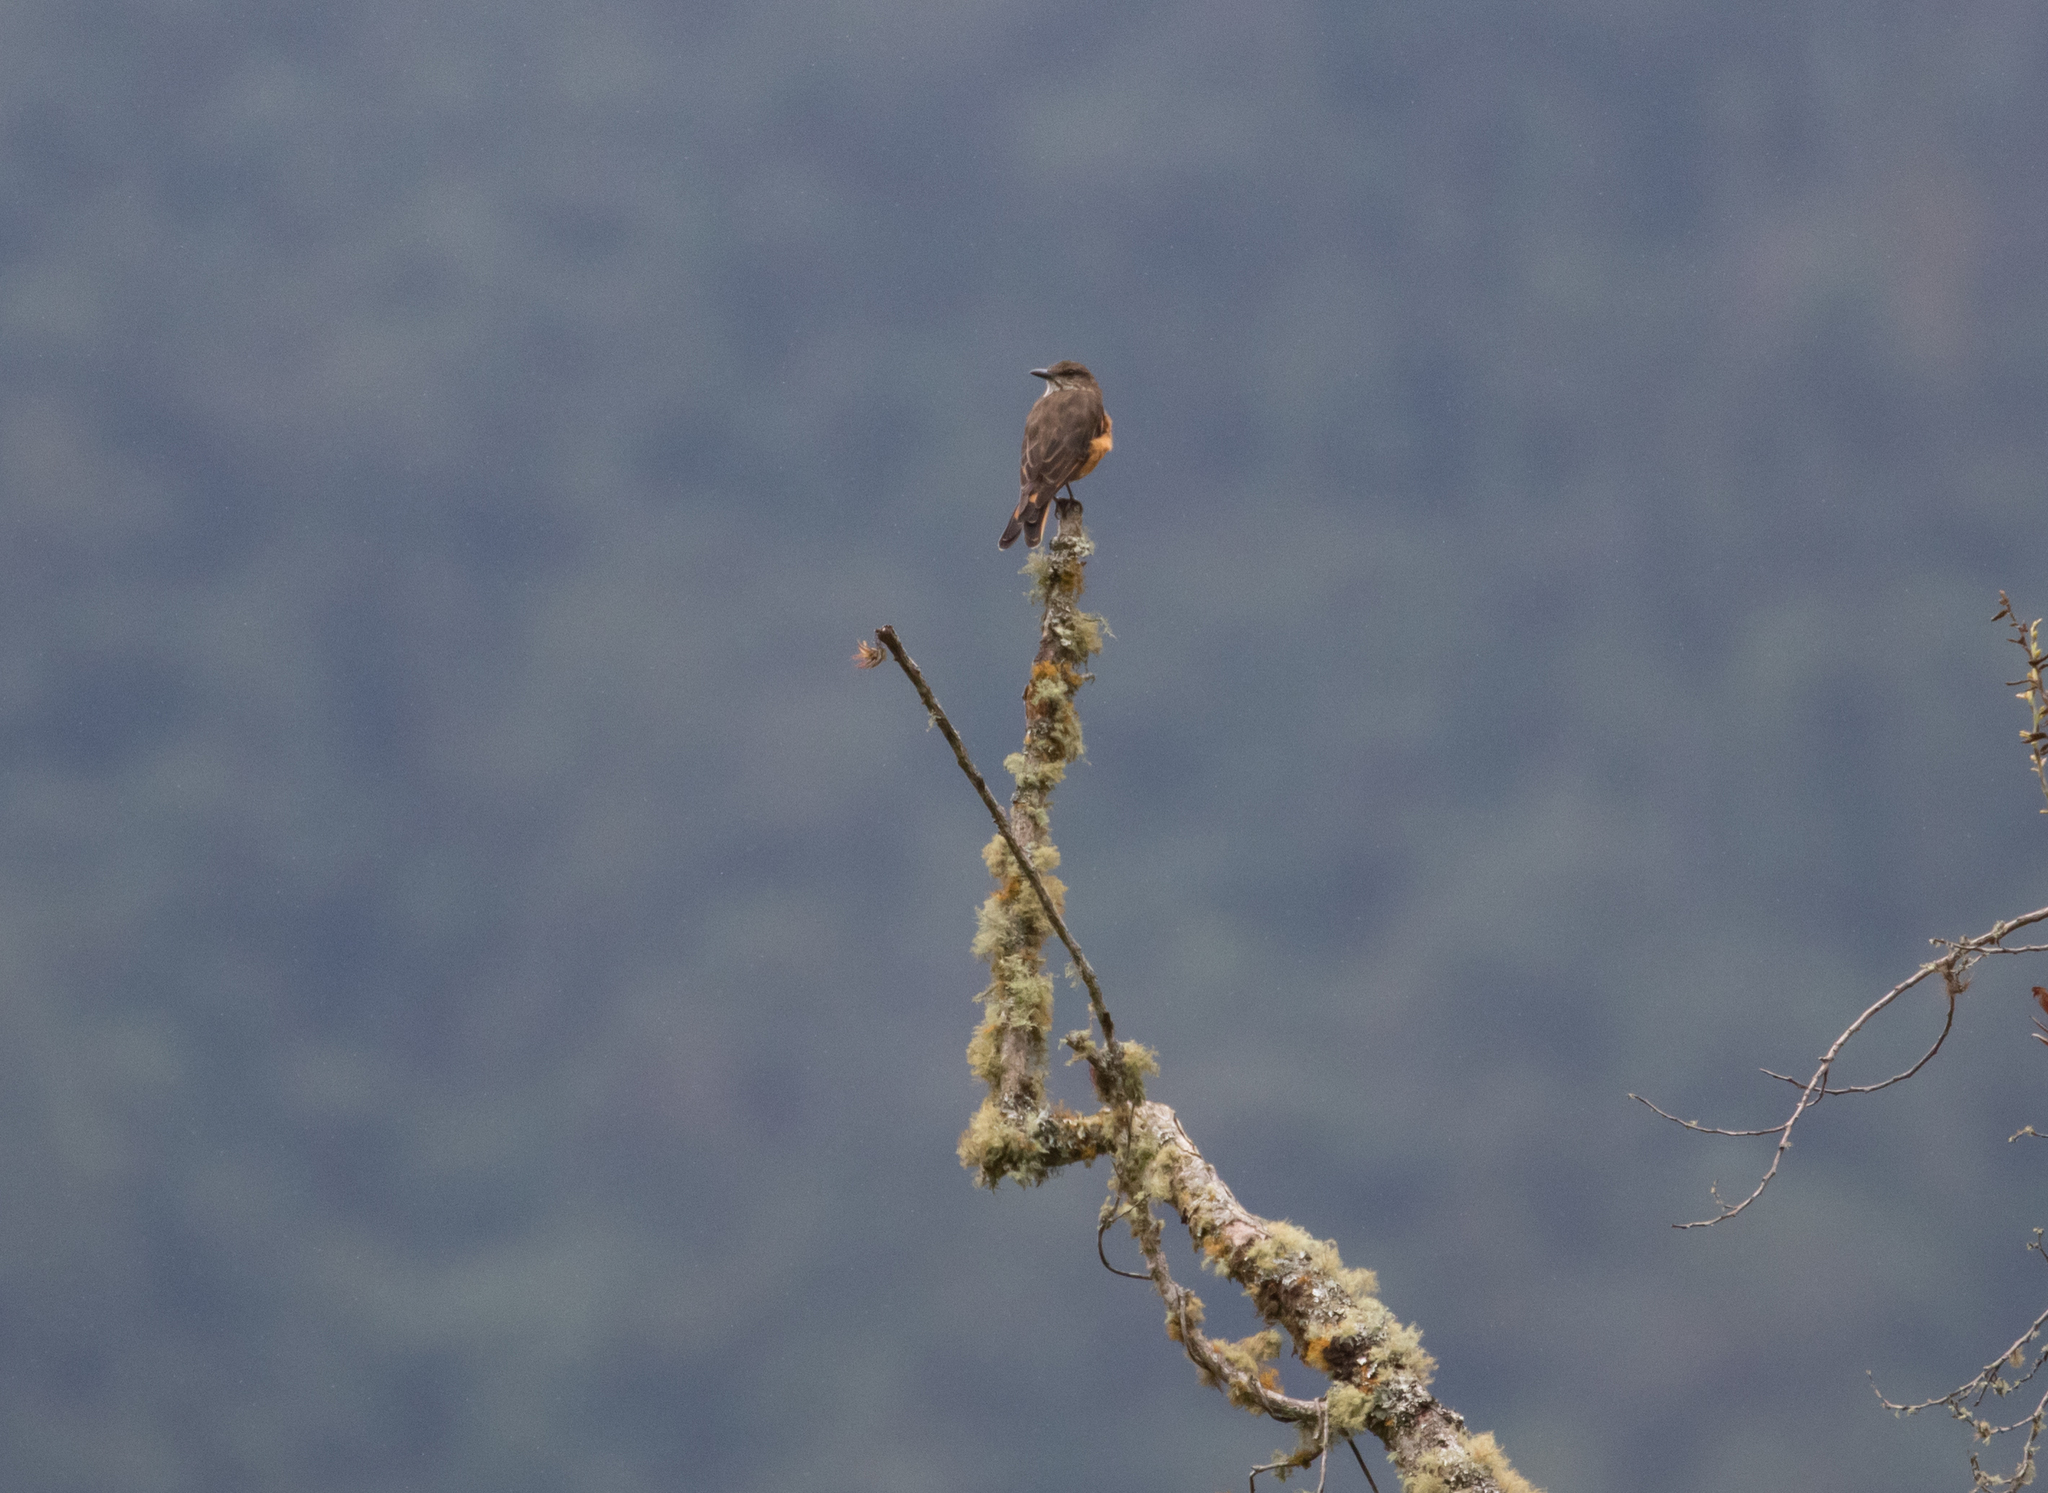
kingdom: Animalia
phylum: Chordata
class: Aves
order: Passeriformes
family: Tyrannidae
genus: Myiotheretes
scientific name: Myiotheretes striaticollis
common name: Streak-throated bush tyrant
